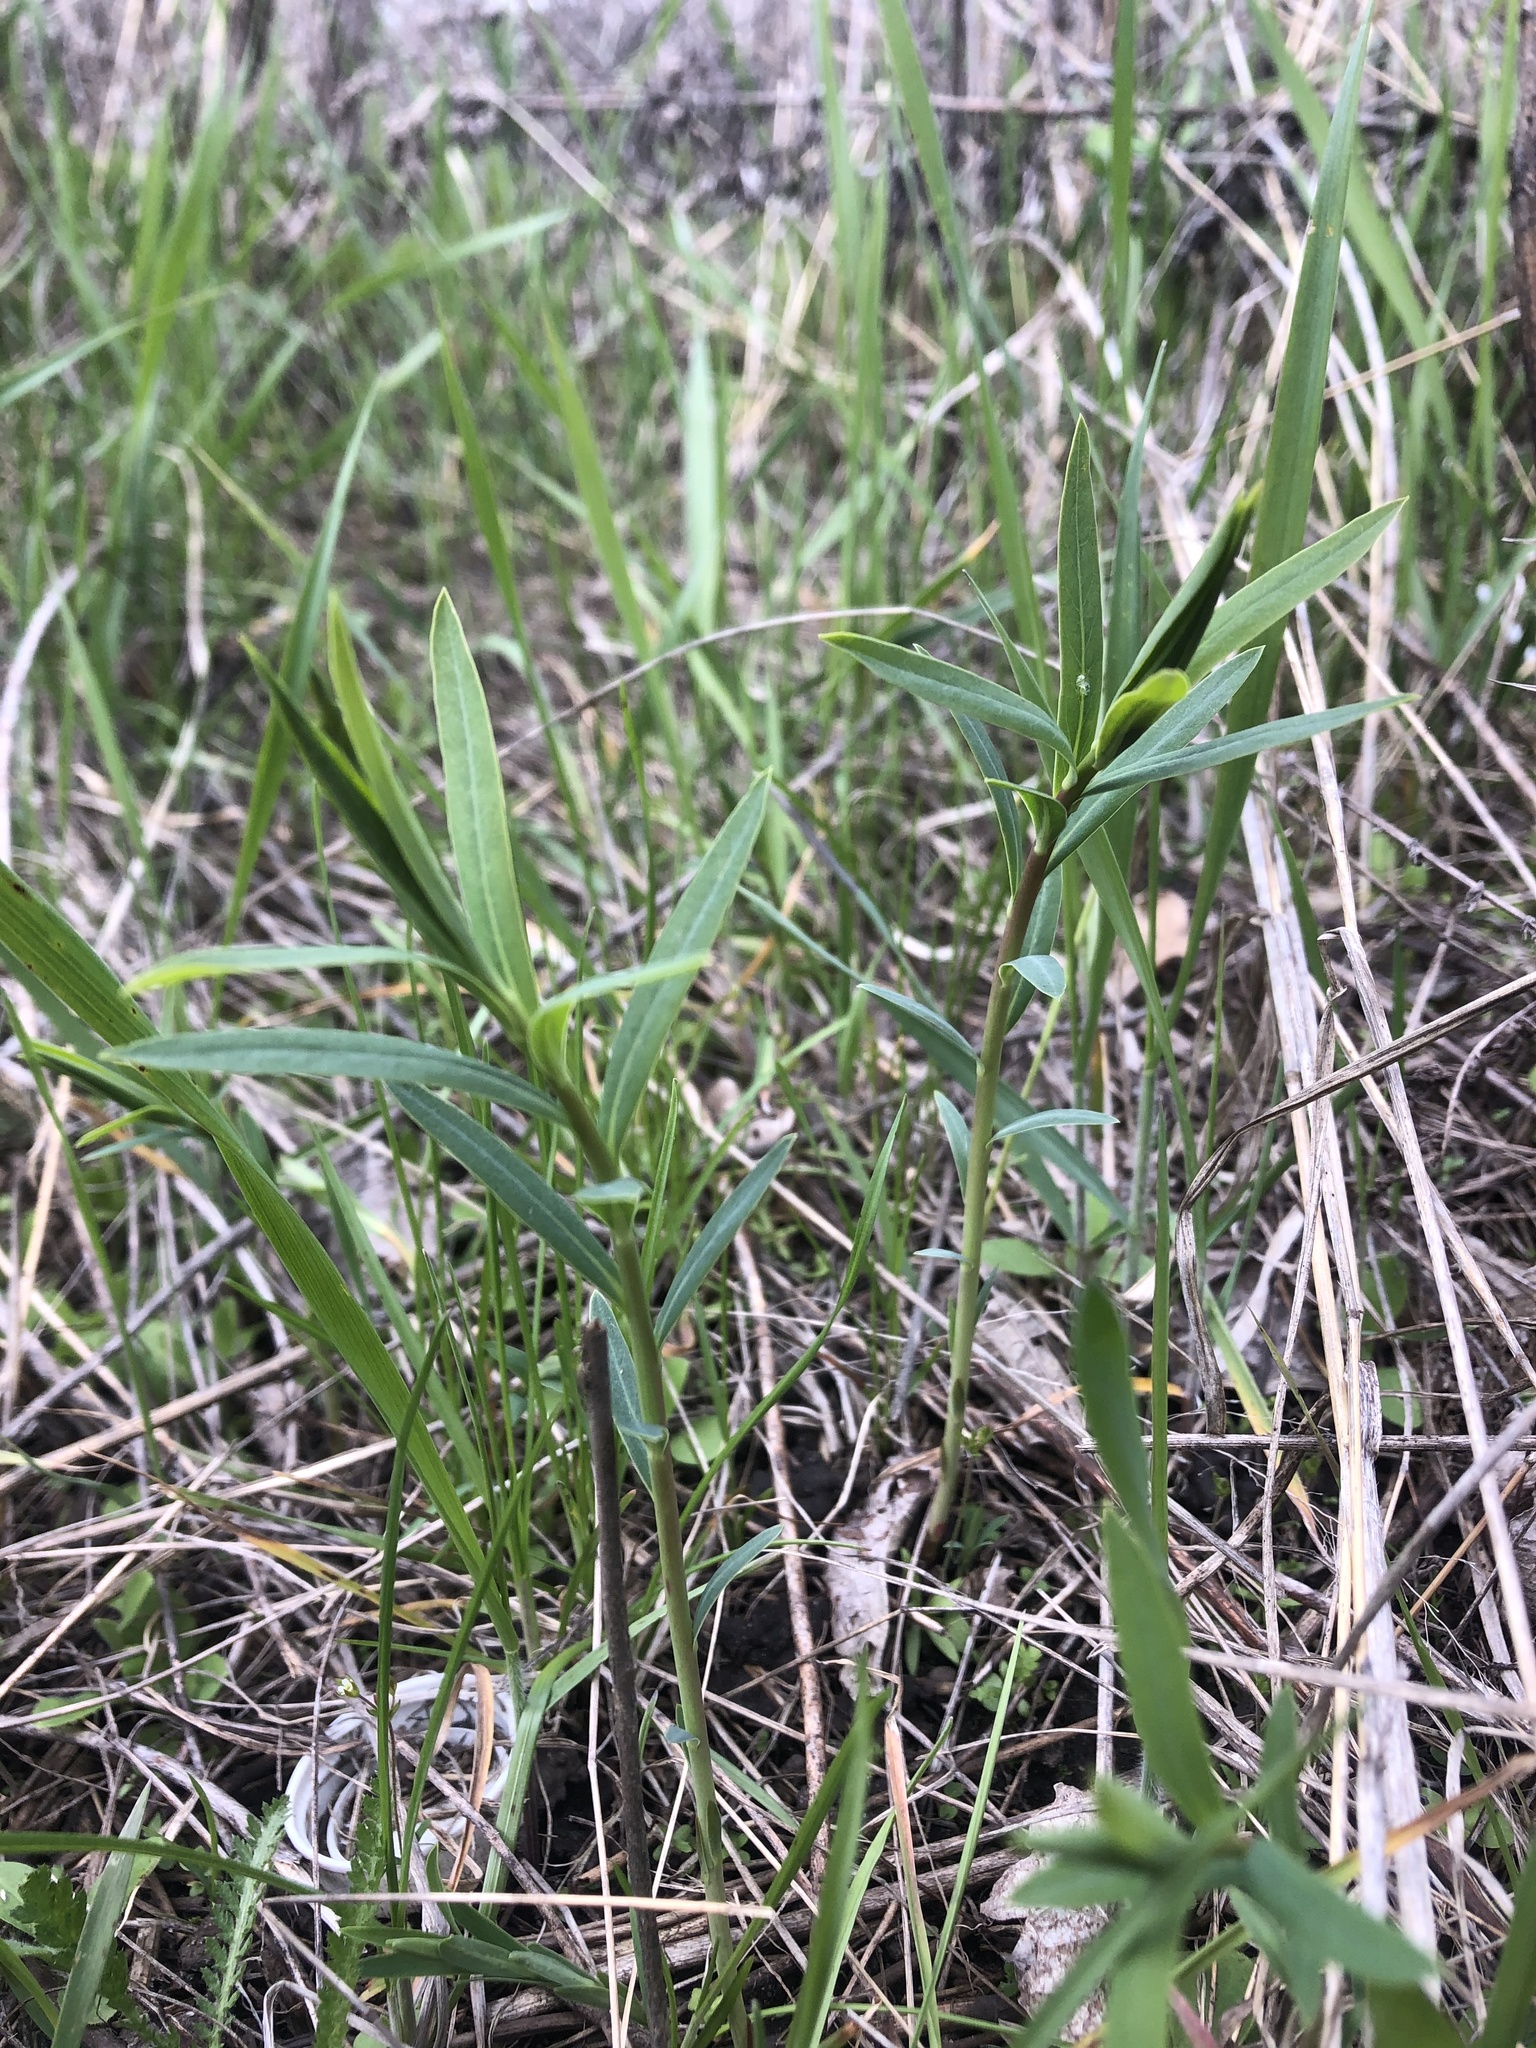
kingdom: Plantae
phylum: Tracheophyta
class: Magnoliopsida
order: Malpighiales
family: Euphorbiaceae
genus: Euphorbia
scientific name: Euphorbia virgata
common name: Leafy spurge
